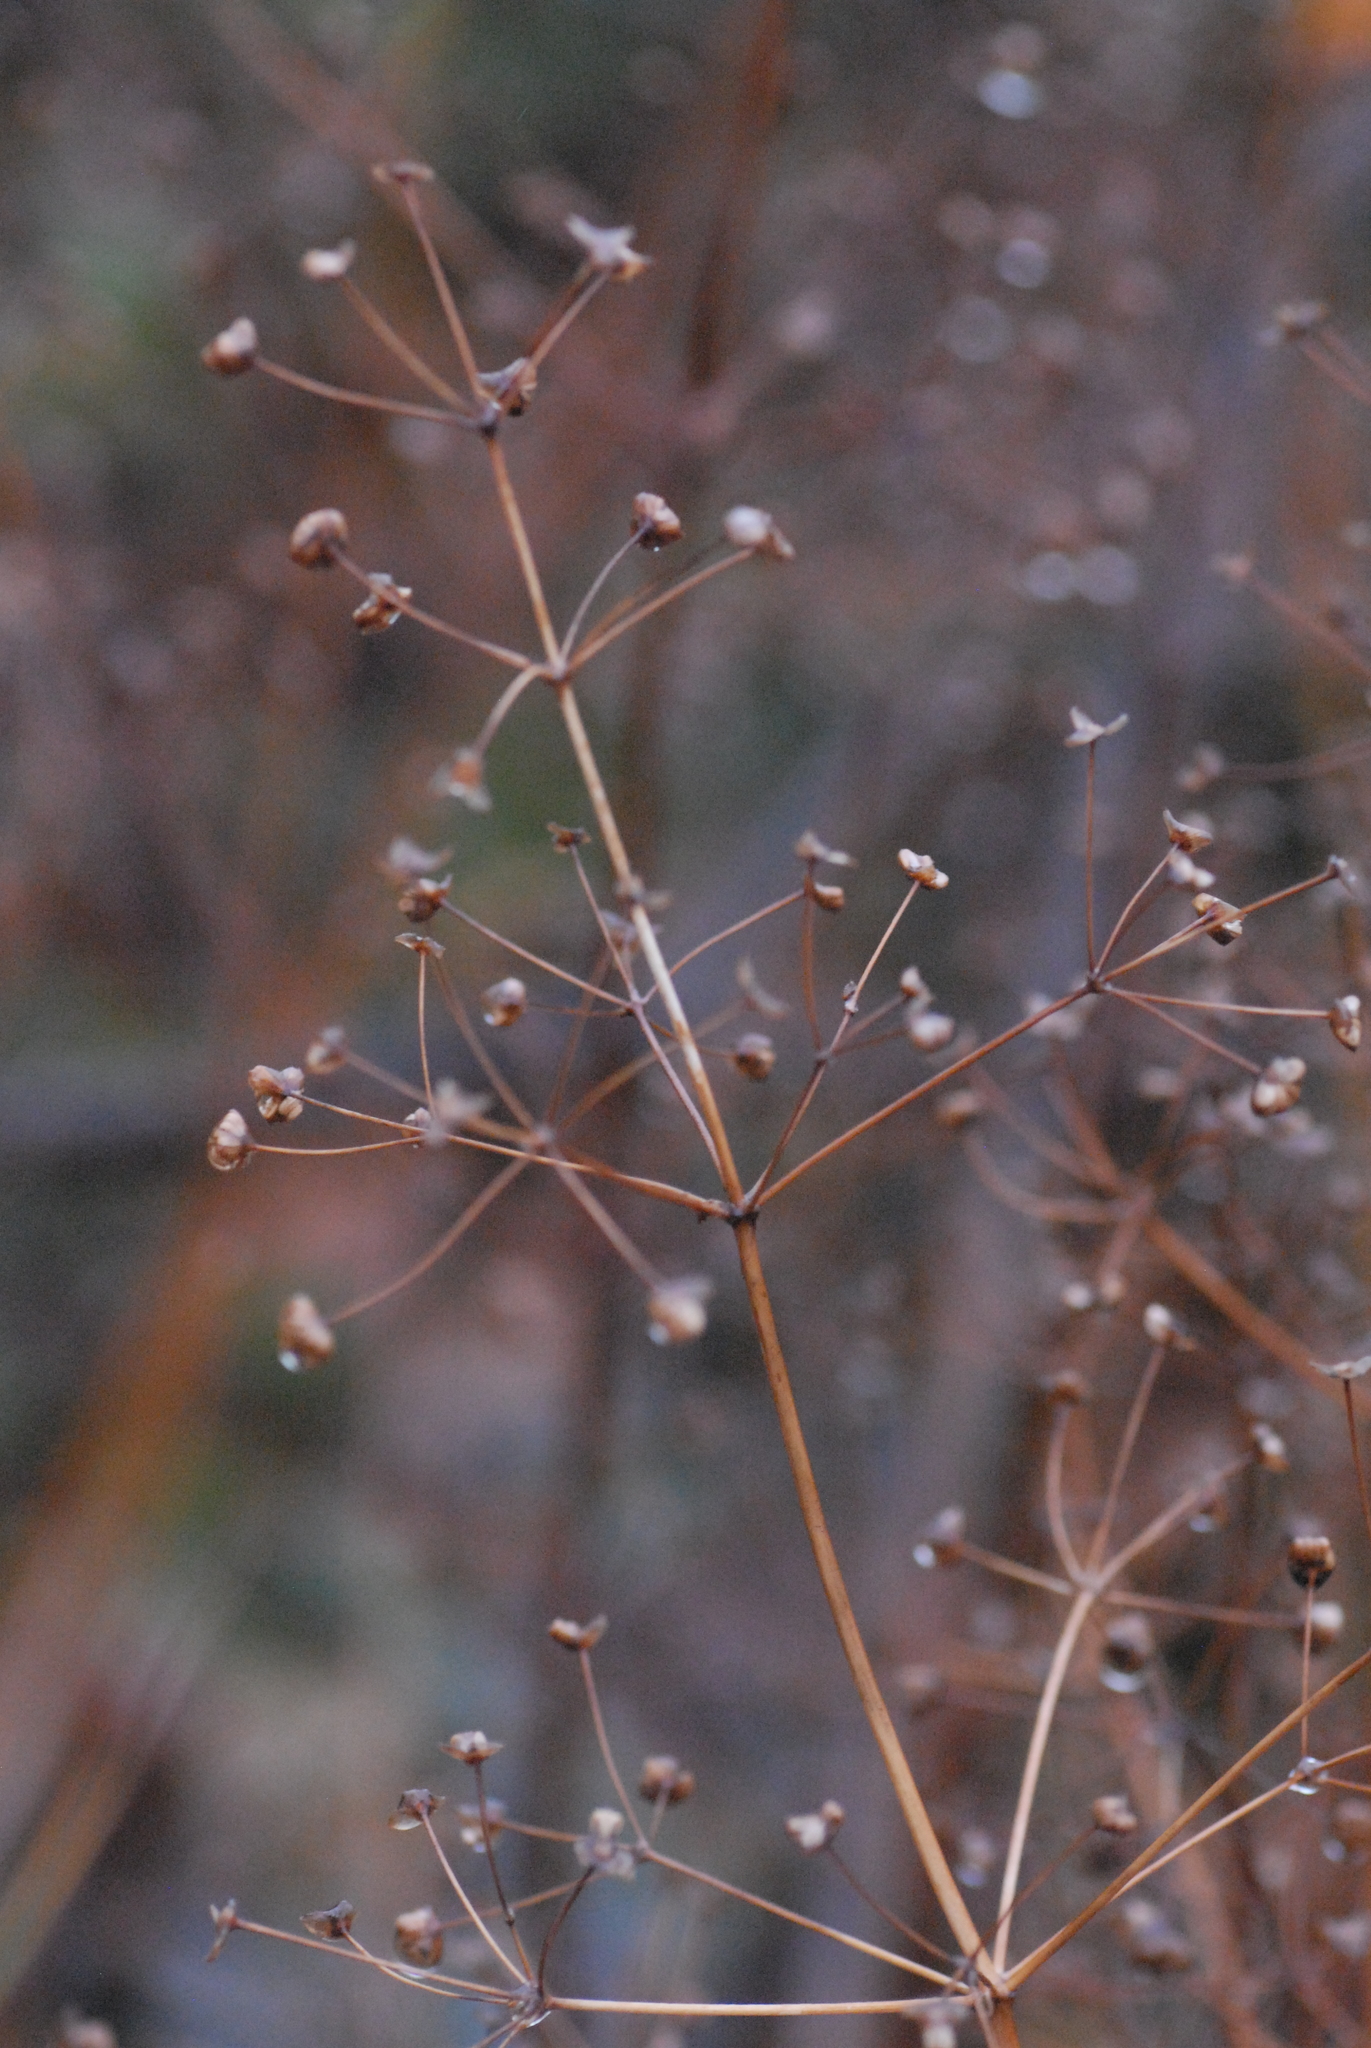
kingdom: Plantae
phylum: Tracheophyta
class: Liliopsida
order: Alismatales
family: Alismataceae
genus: Alisma
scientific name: Alisma plantago-aquatica
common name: Water-plantain
